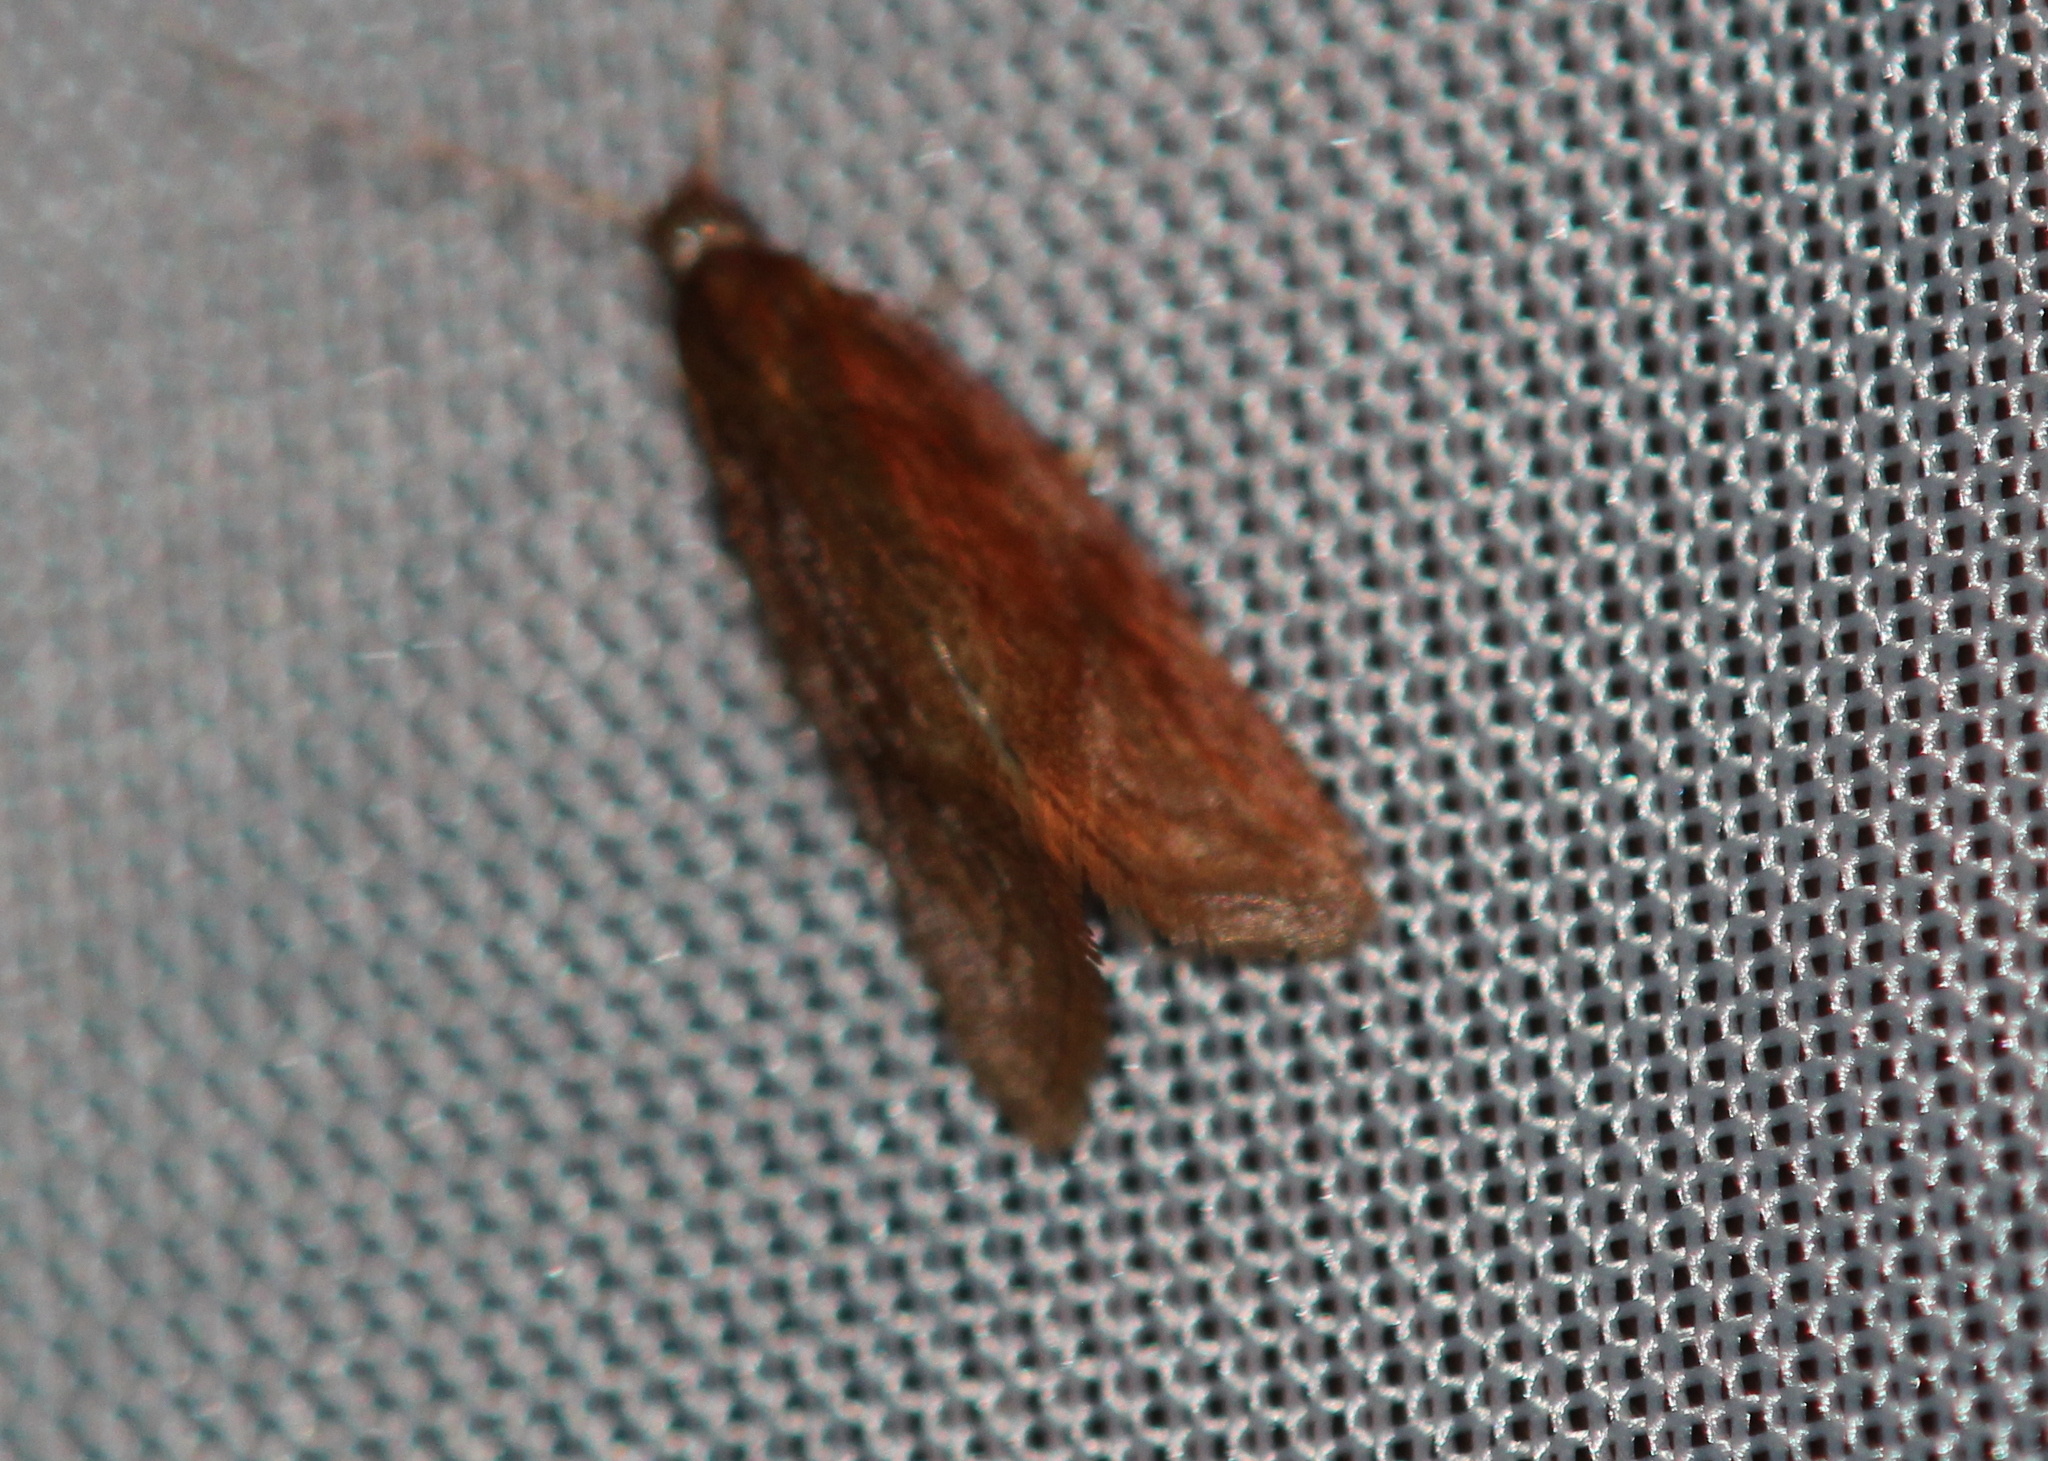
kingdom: Animalia
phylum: Arthropoda
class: Insecta
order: Lepidoptera
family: Tortricidae
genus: Aethes
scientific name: Aethes biscana
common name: Reddish aethes
